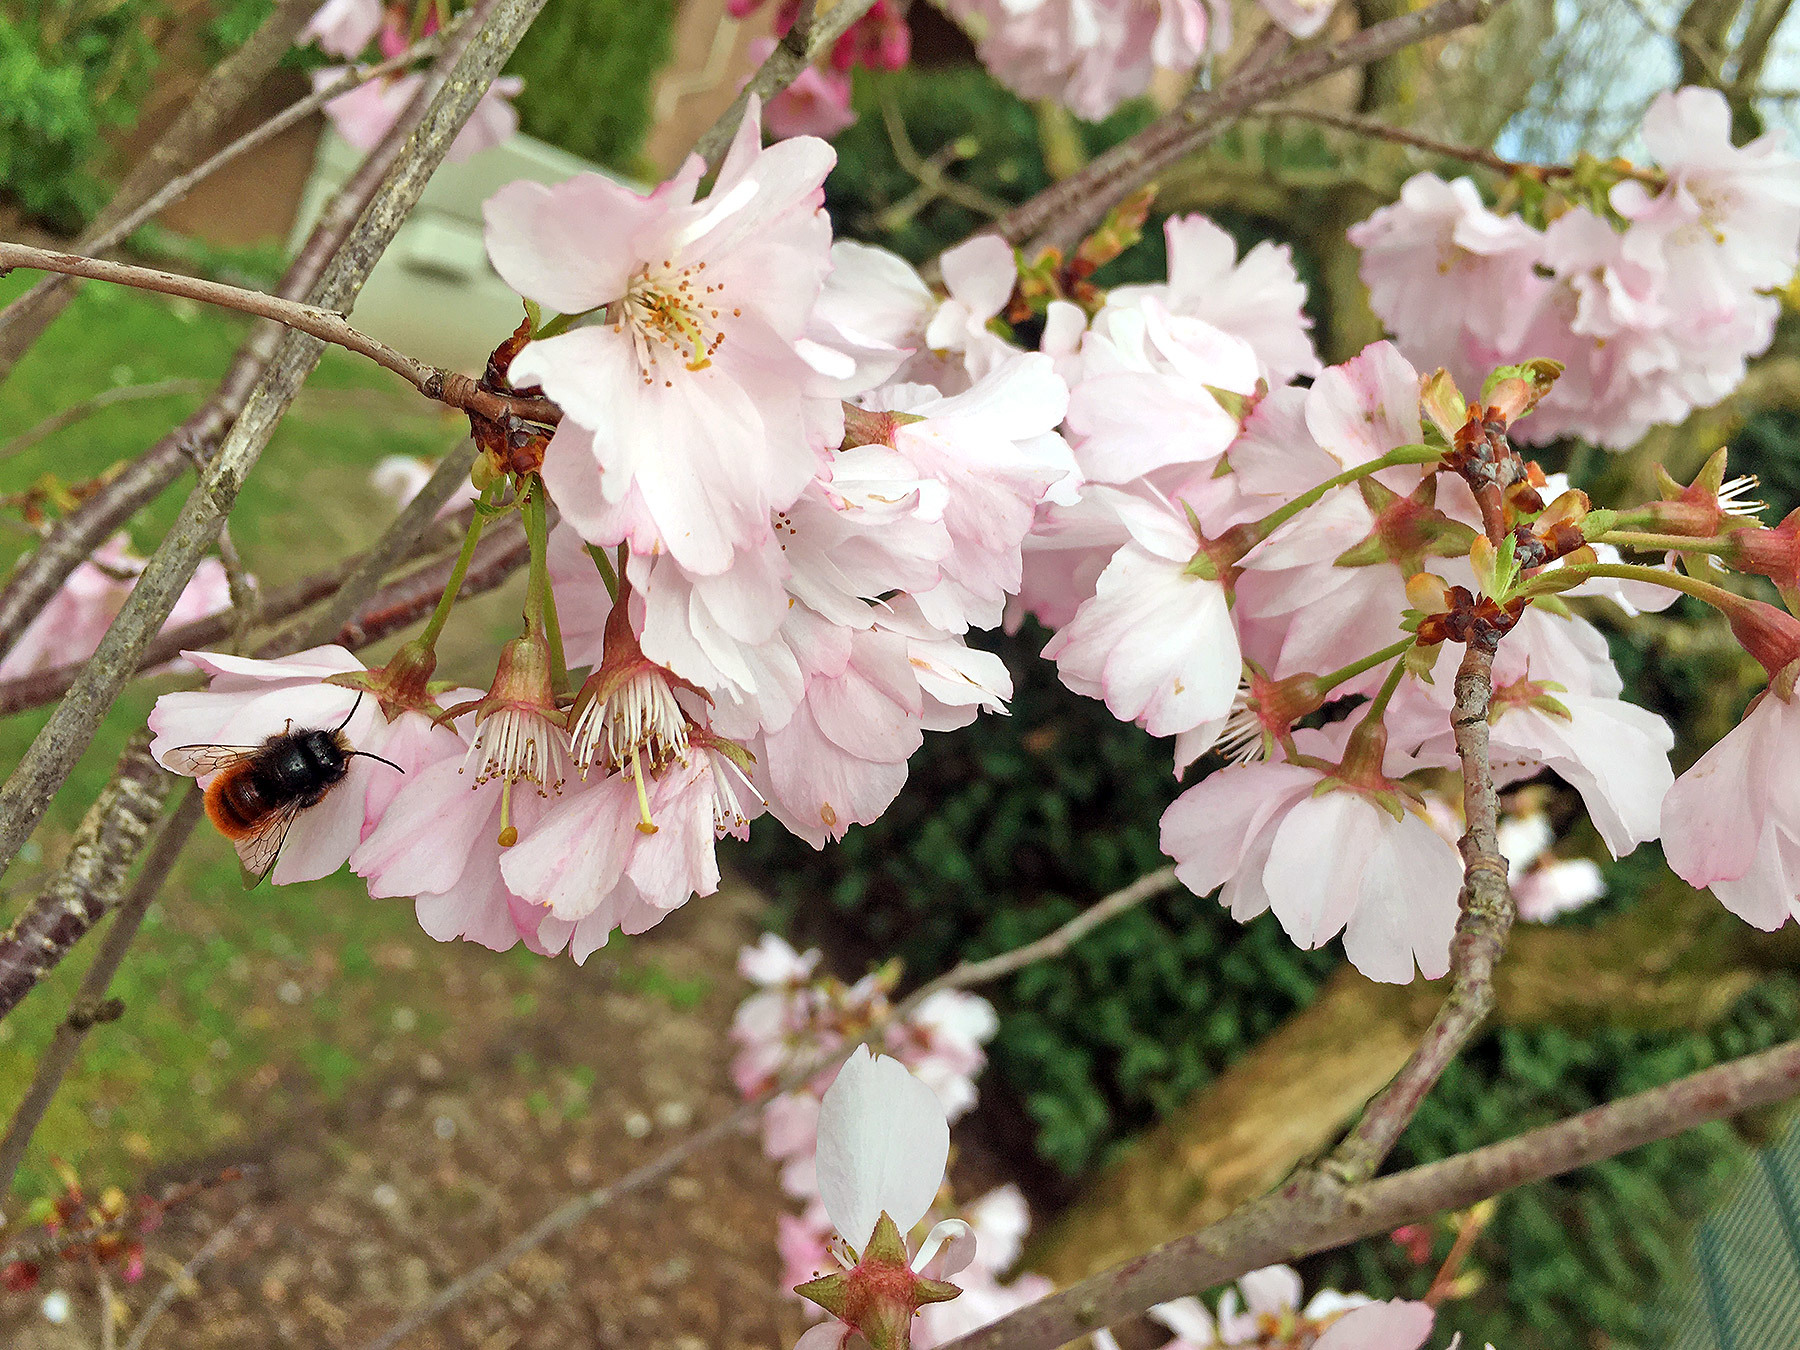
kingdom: Animalia
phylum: Arthropoda
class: Insecta
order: Hymenoptera
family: Megachilidae
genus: Osmia
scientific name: Osmia cornuta
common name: Mason bee
